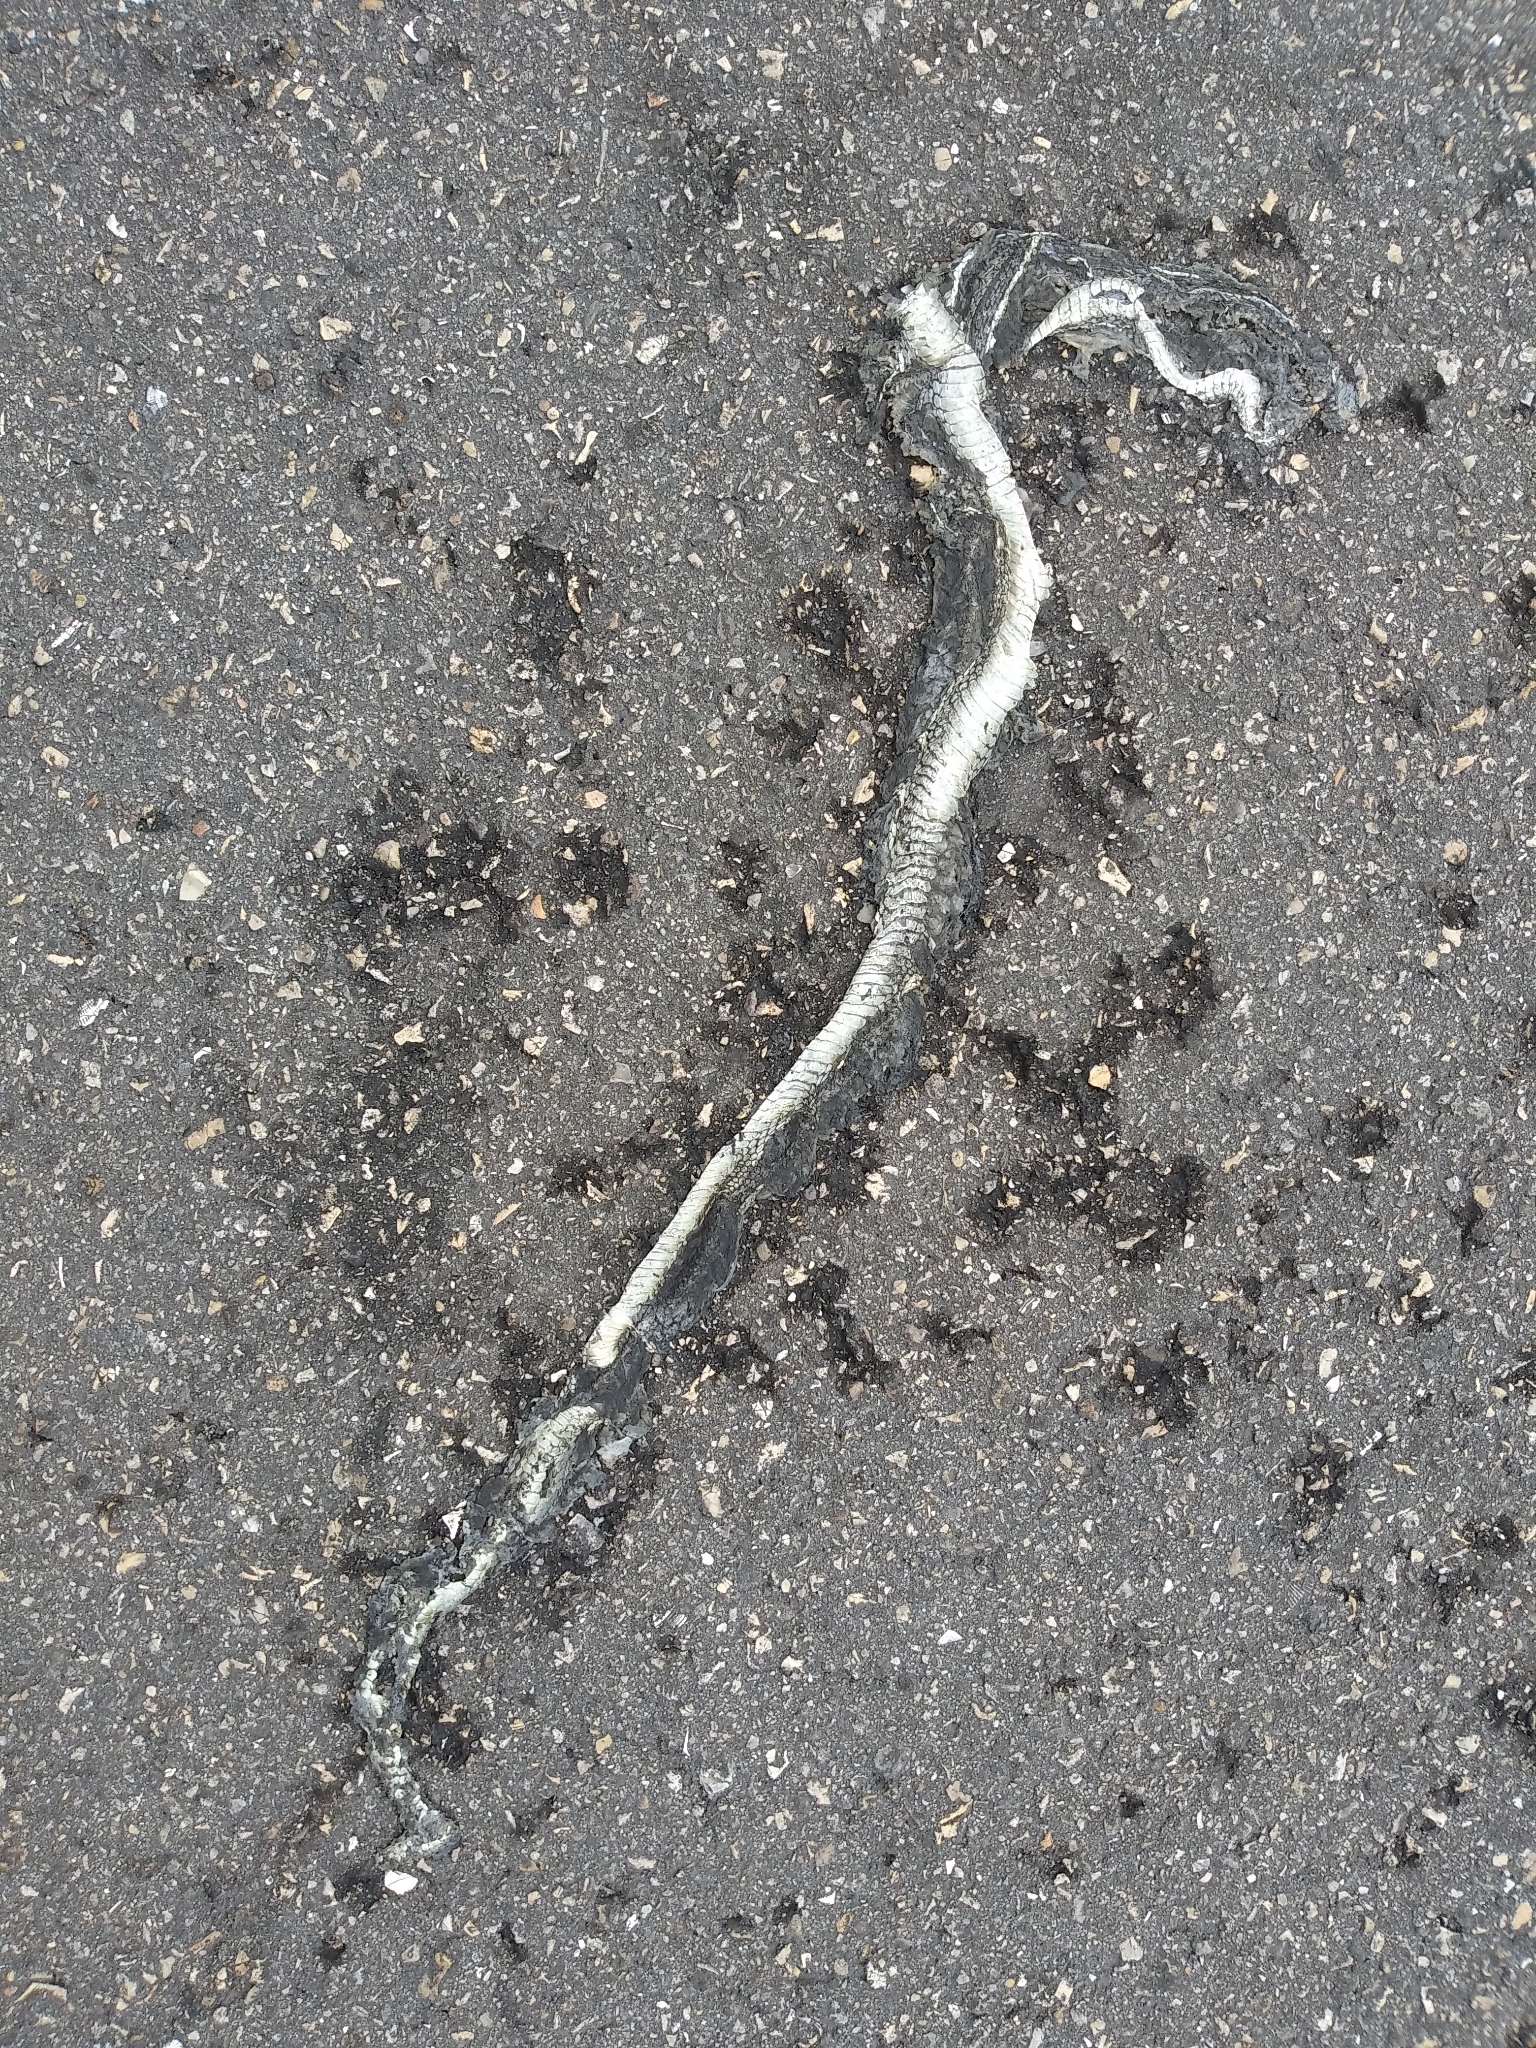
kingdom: Animalia
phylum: Chordata
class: Squamata
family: Colubridae
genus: Thamnophis
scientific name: Thamnophis saurita
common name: Eastern ribbonsnake
